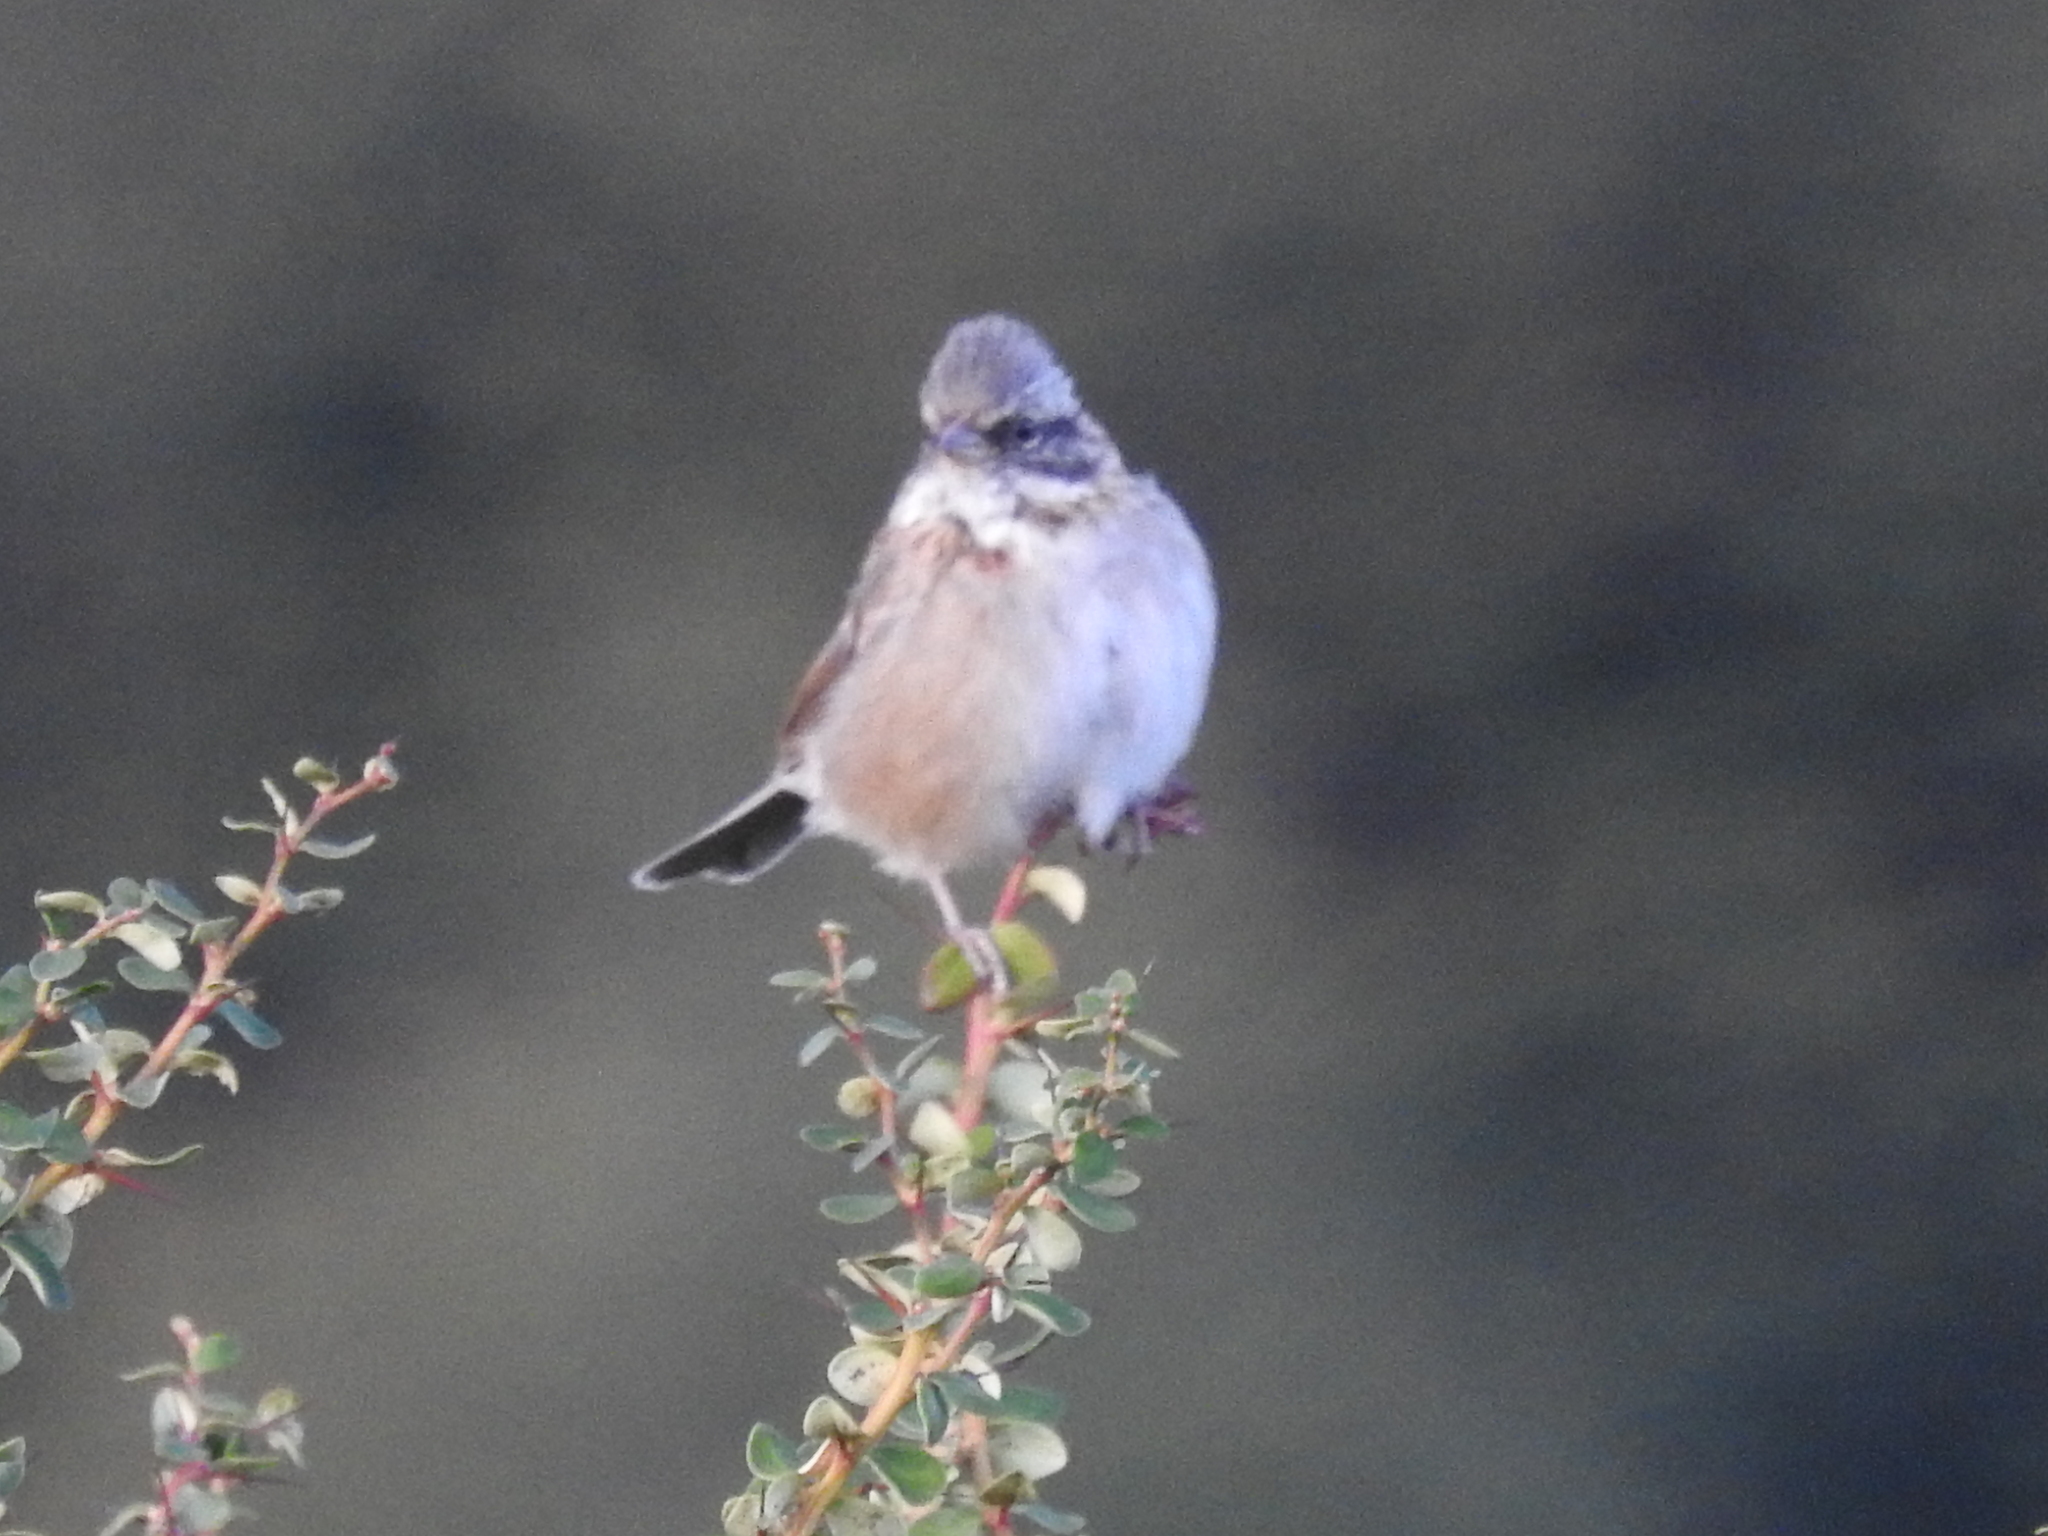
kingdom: Animalia
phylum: Chordata
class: Aves
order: Passeriformes
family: Passerellidae
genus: Zonotrichia
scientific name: Zonotrichia capensis
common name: Rufous-collared sparrow
